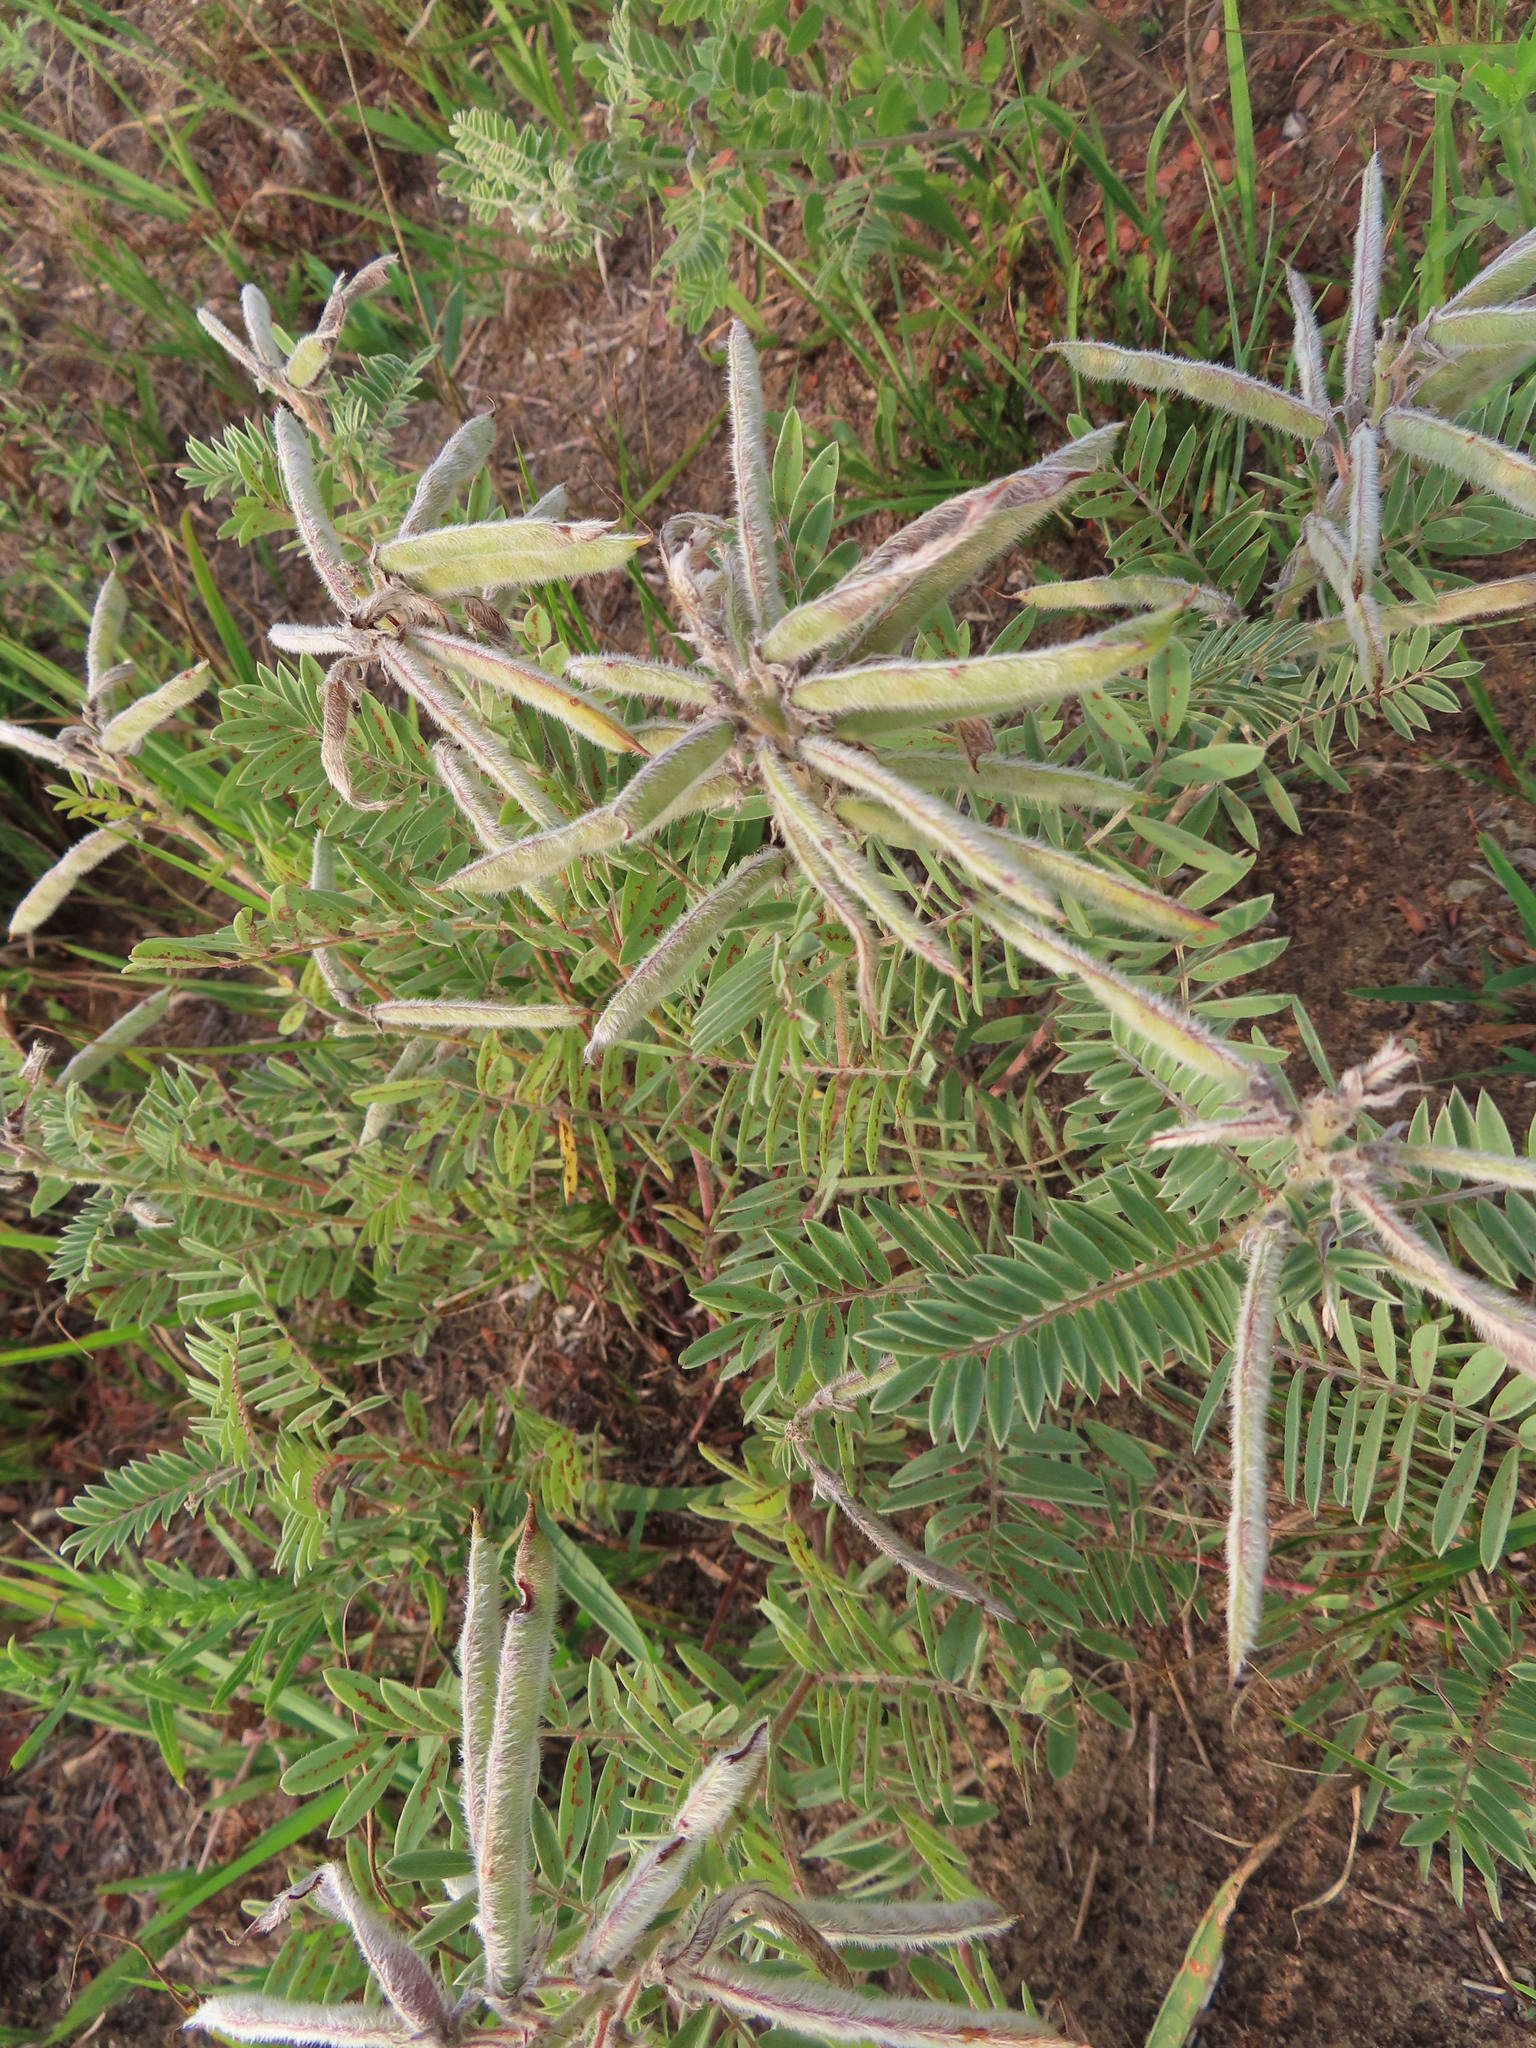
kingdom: Plantae
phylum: Tracheophyta
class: Magnoliopsida
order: Fabales
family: Fabaceae
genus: Tephrosia
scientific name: Tephrosia virginiana
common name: Rabbit-pea
